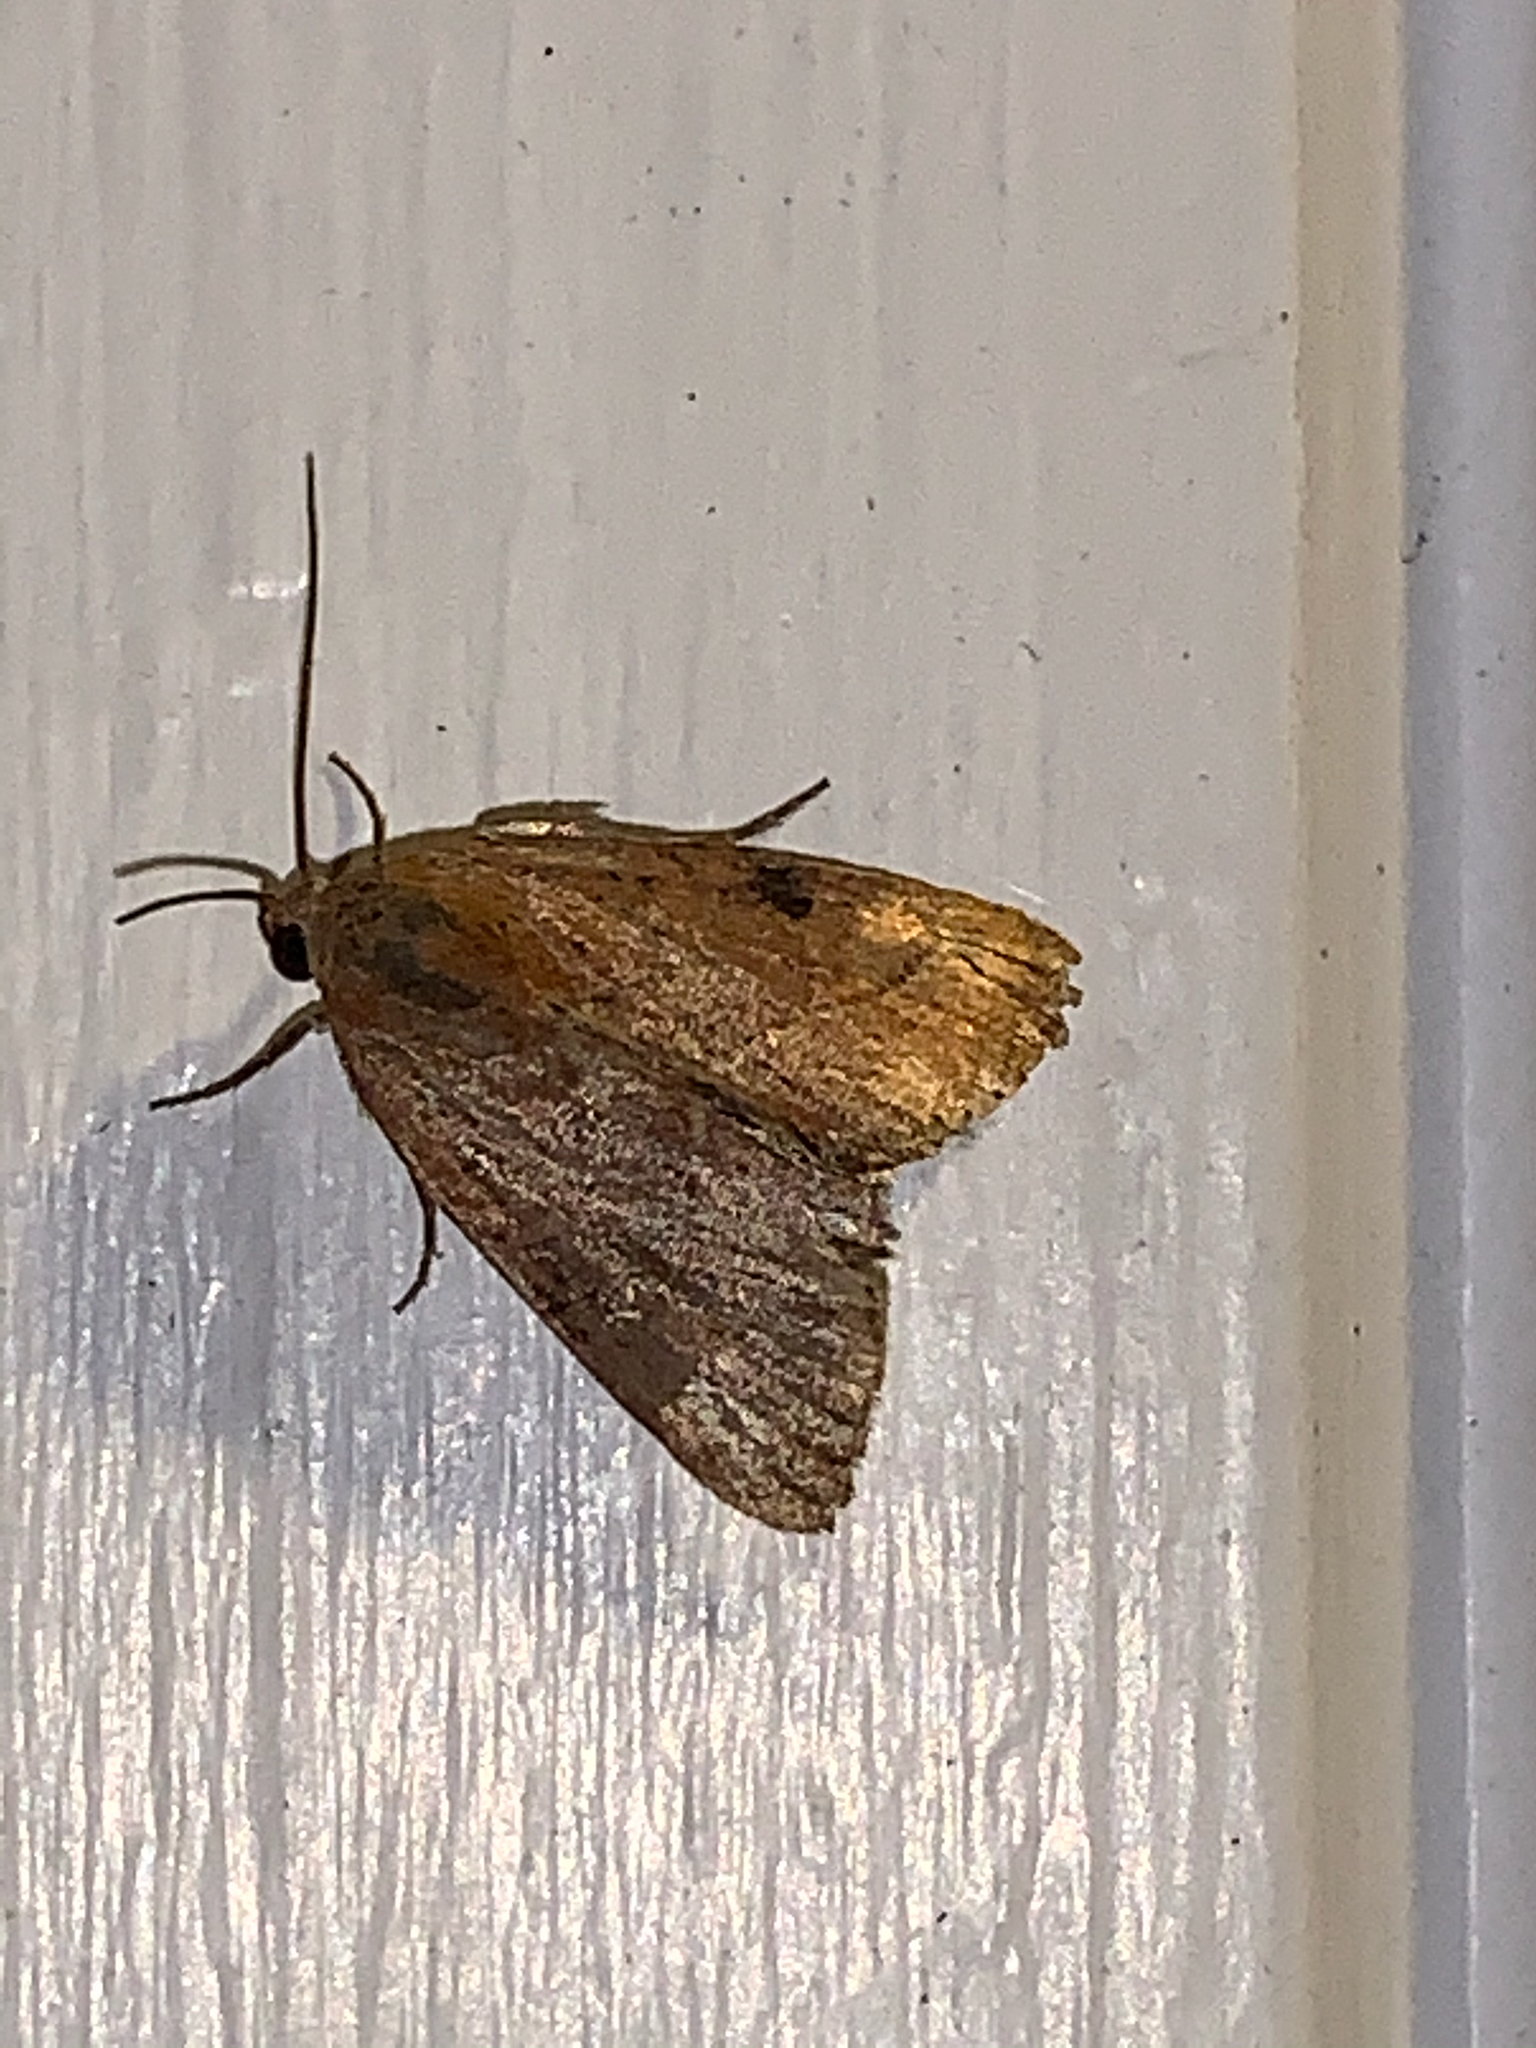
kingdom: Animalia
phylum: Arthropoda
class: Insecta
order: Lepidoptera
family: Noctuidae
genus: Galgula
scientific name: Galgula partita
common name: Wedgeling
